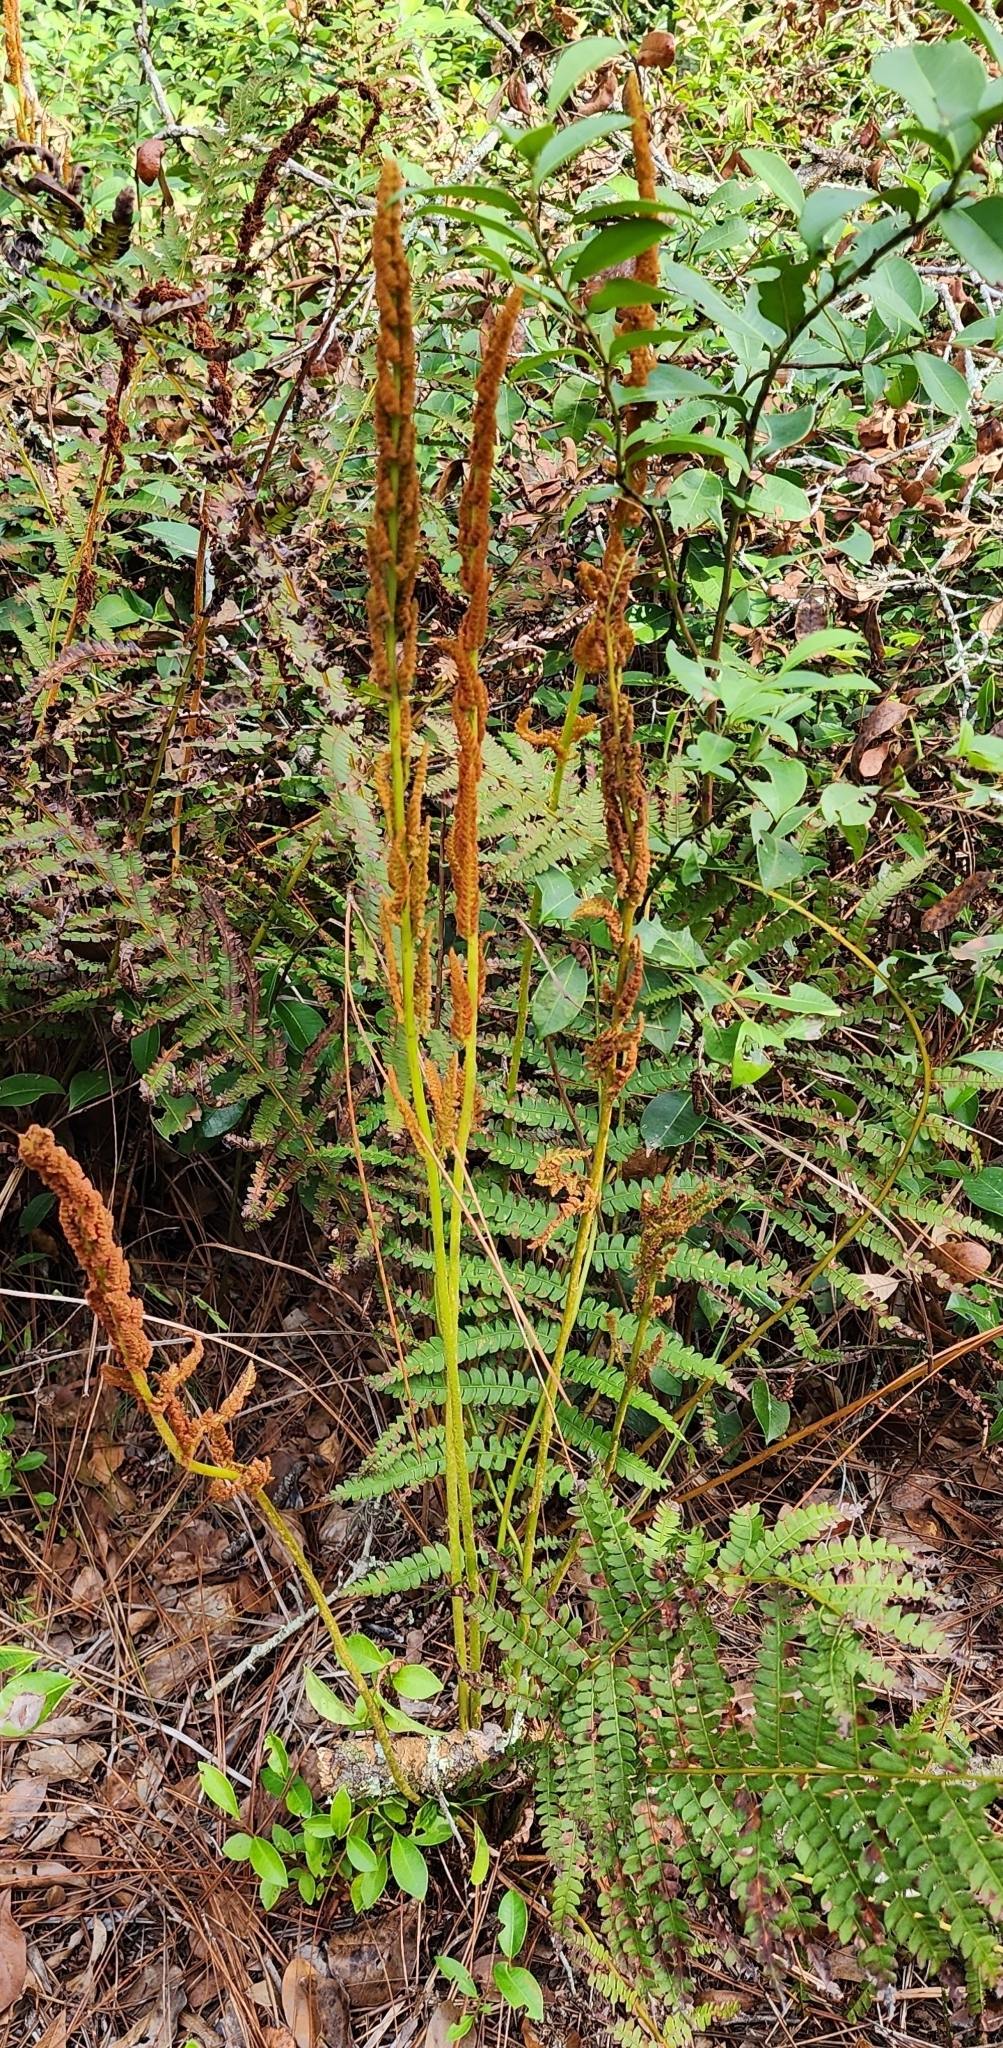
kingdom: Plantae
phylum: Tracheophyta
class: Polypodiopsida
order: Osmundales
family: Osmundaceae
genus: Osmundastrum
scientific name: Osmundastrum cinnamomeum
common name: Cinnamon fern
